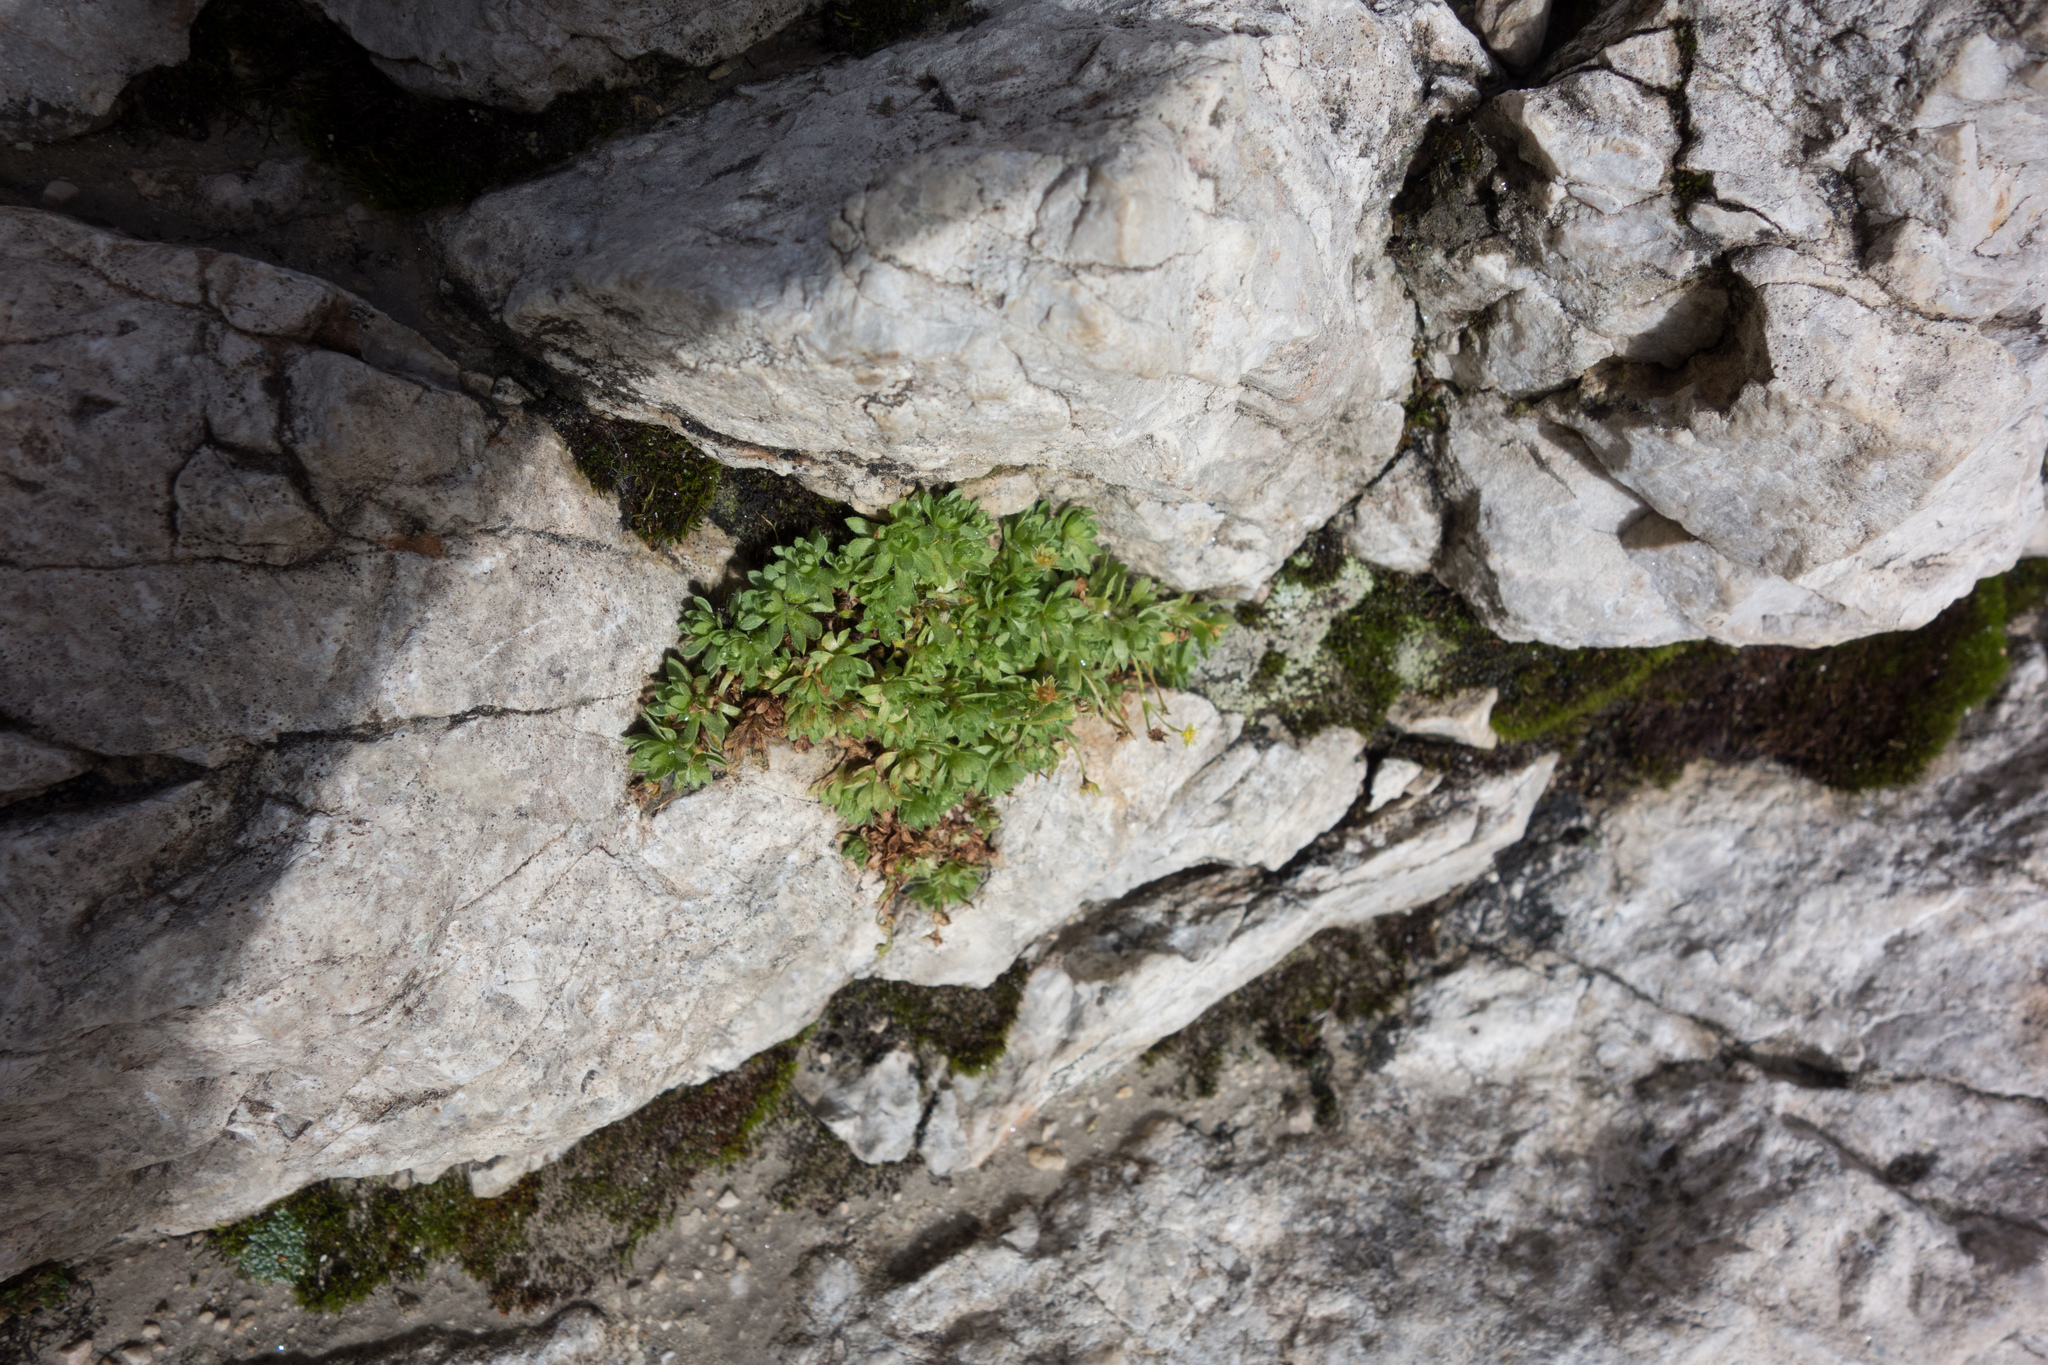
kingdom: Plantae
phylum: Tracheophyta
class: Magnoliopsida
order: Saxifragales
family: Saxifragaceae
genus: Saxifraga
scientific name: Saxifraga sedoides
